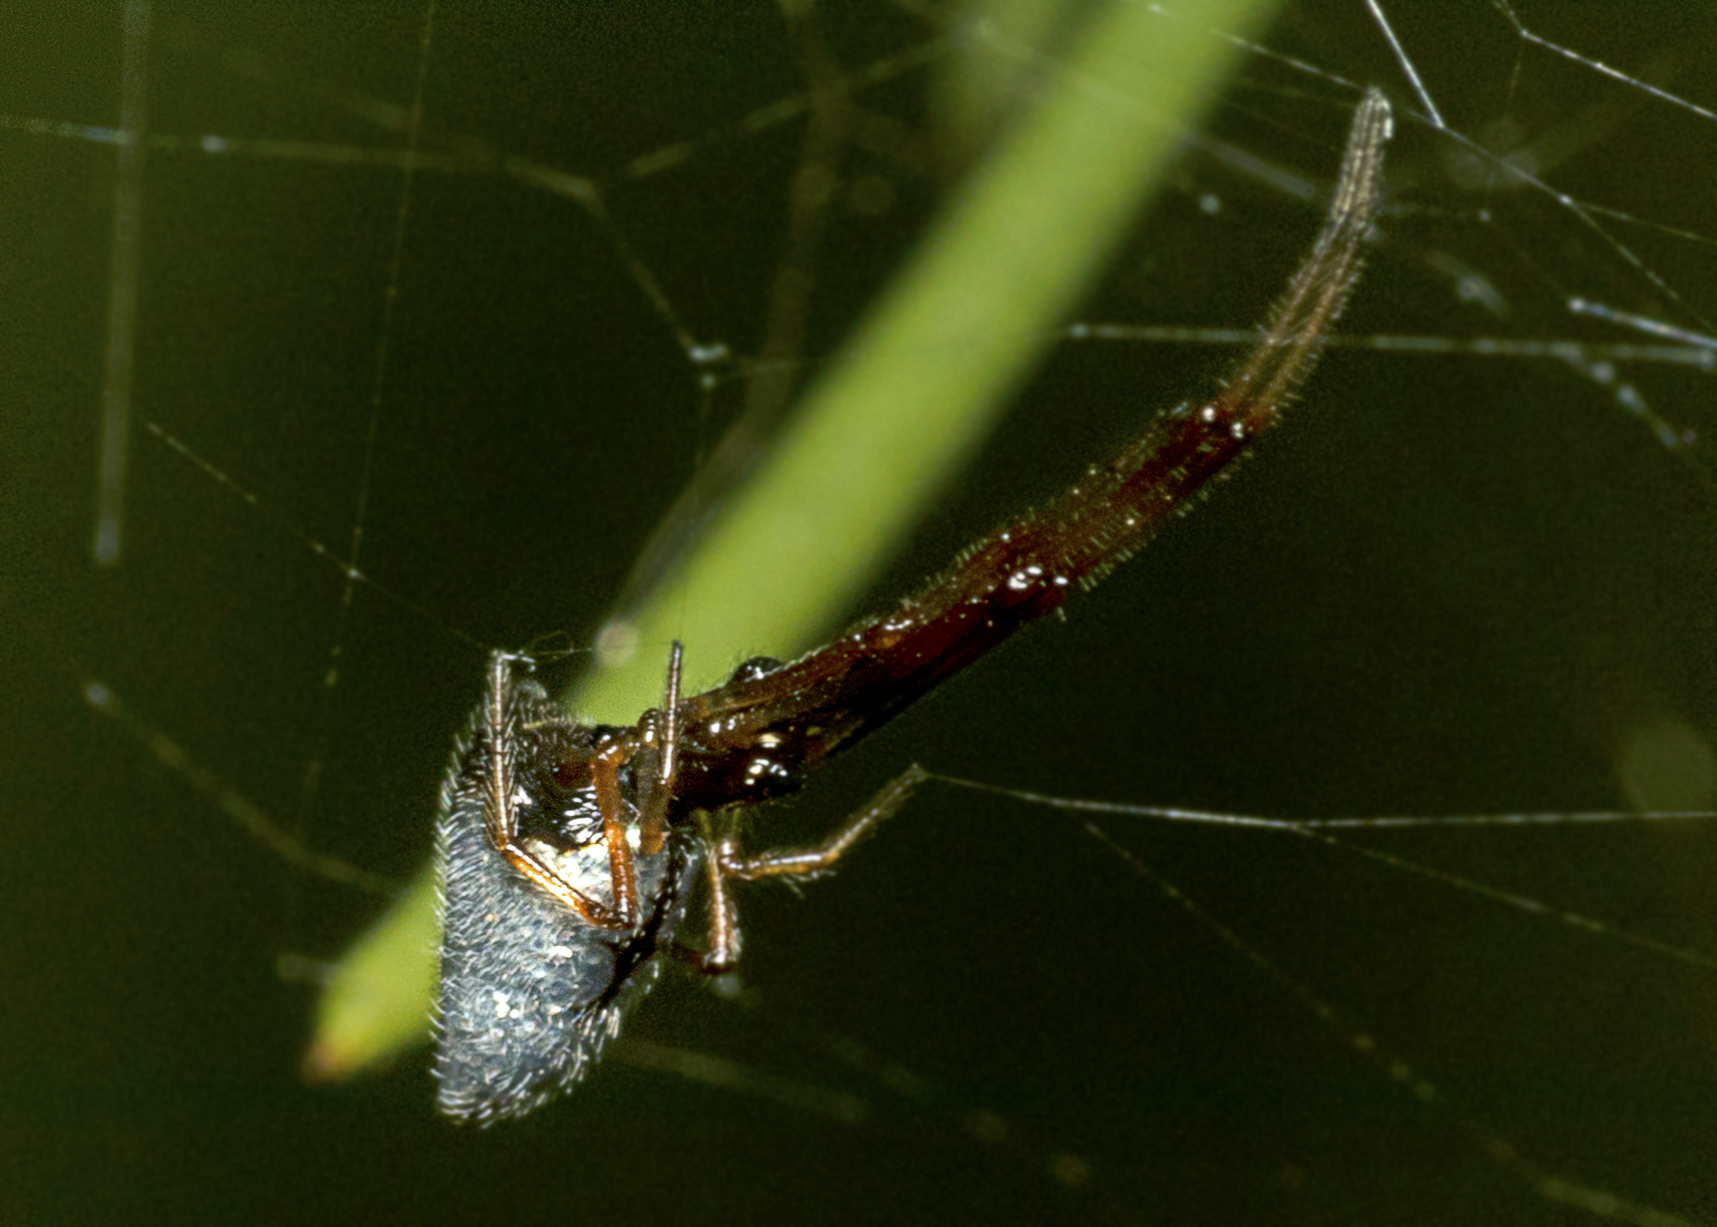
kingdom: Animalia
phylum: Arthropoda
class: Arachnida
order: Araneae
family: Theridiidae
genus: Argyrodes
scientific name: Argyrodes antipodianus
